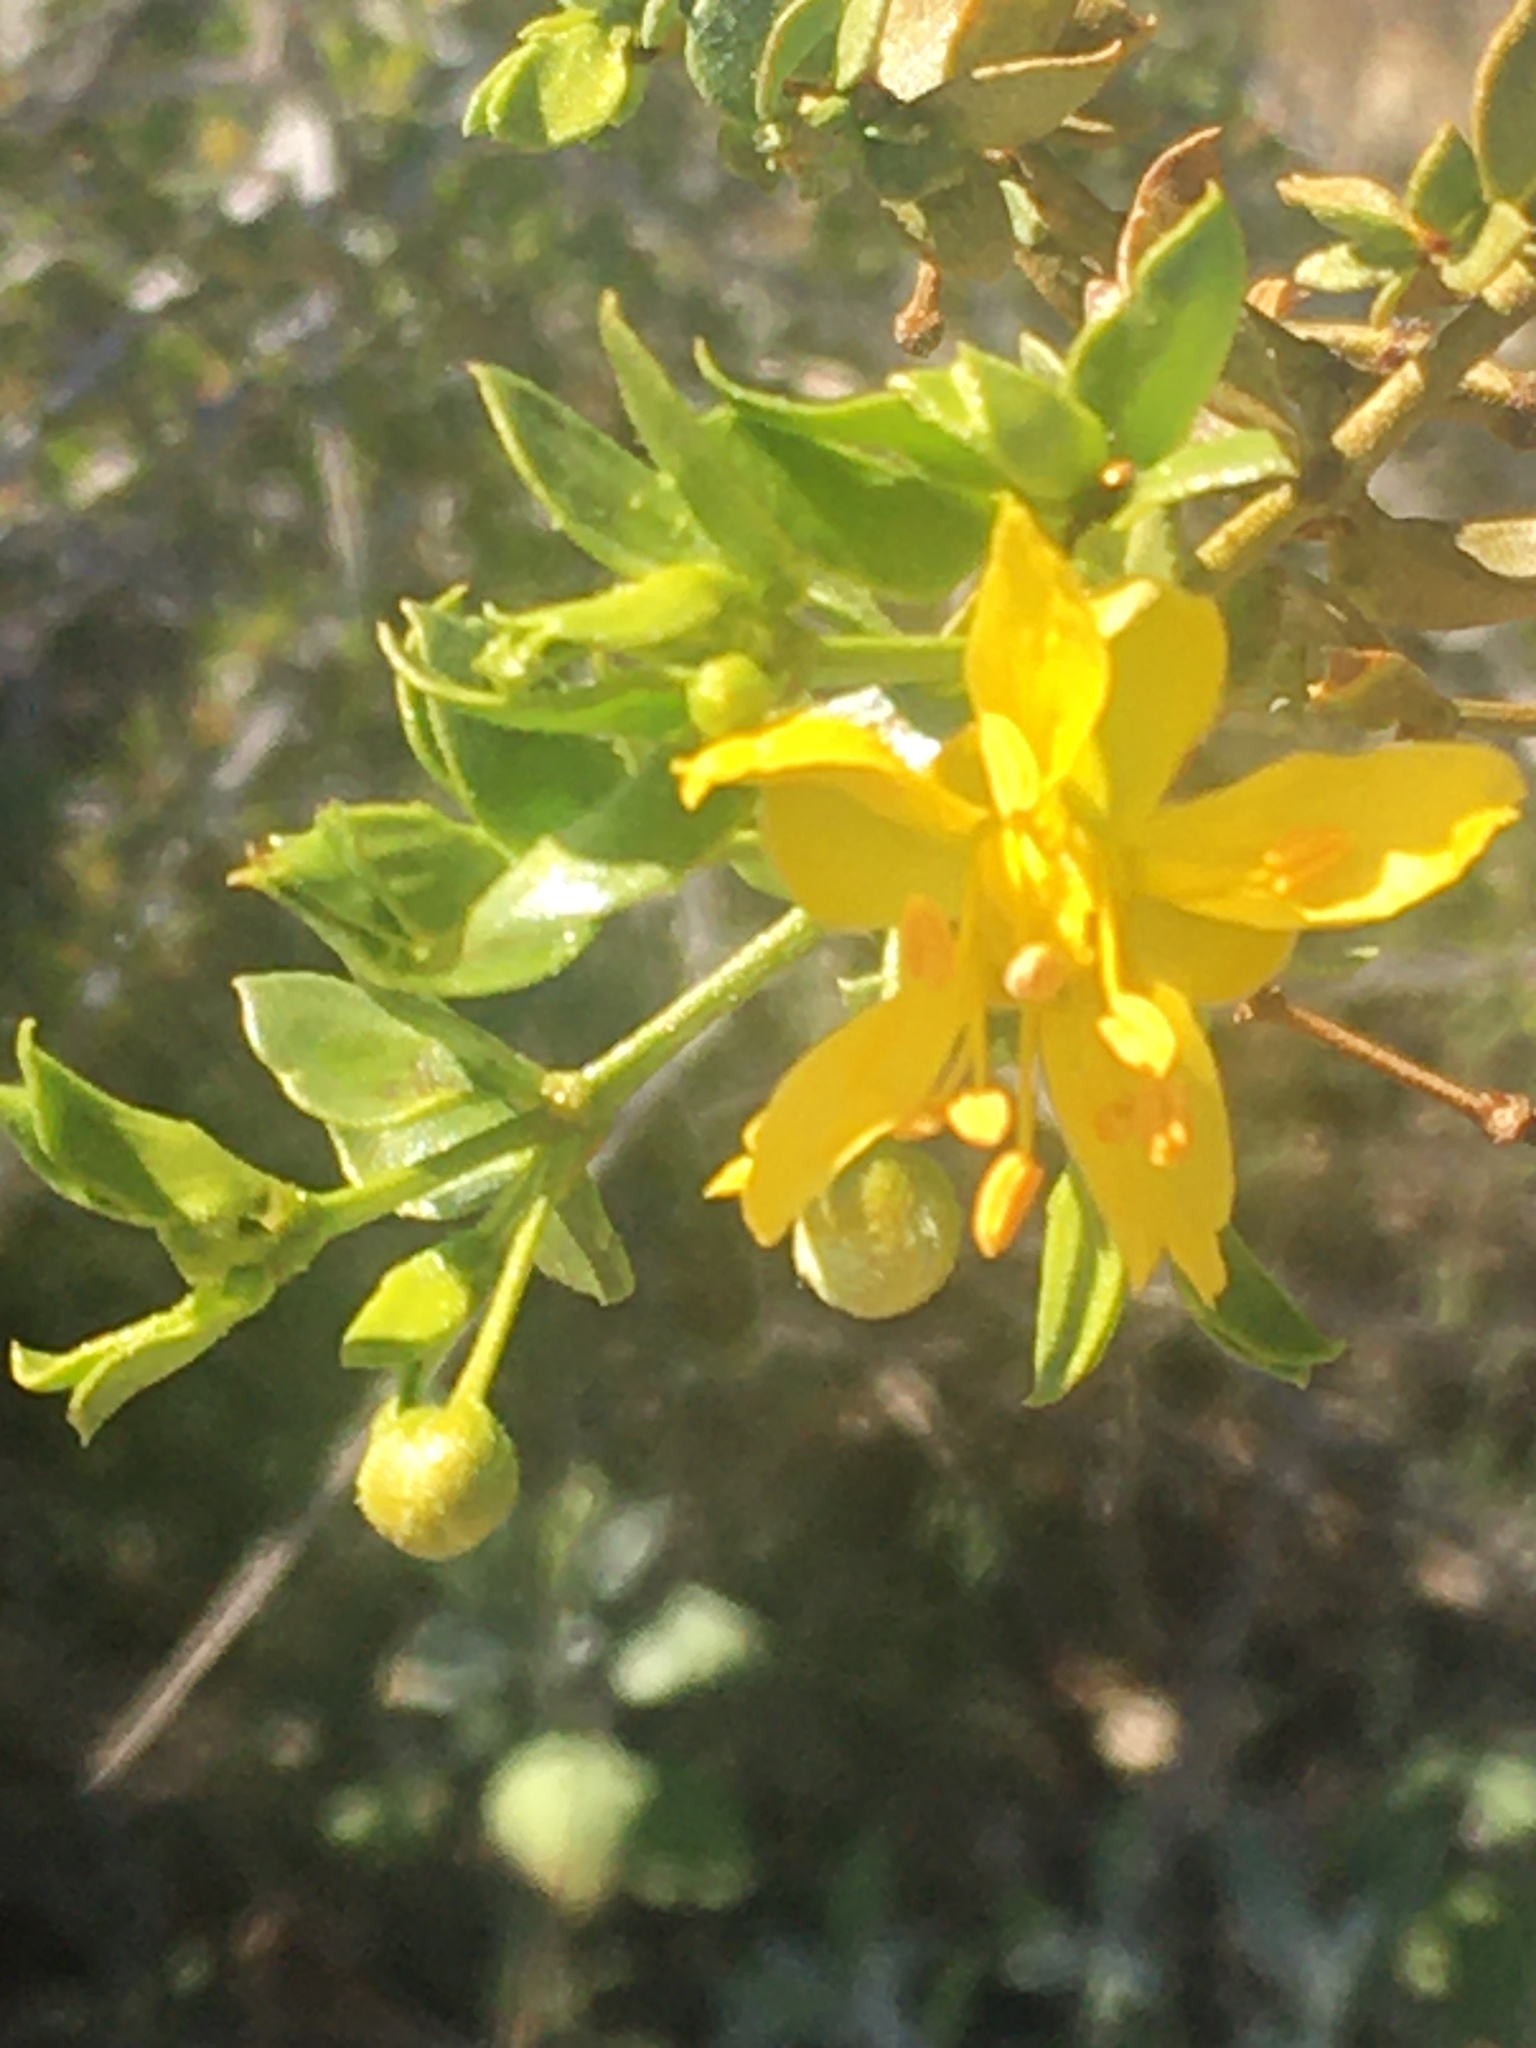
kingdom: Plantae
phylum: Tracheophyta
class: Magnoliopsida
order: Zygophyllales
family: Zygophyllaceae
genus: Larrea
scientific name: Larrea tridentata
